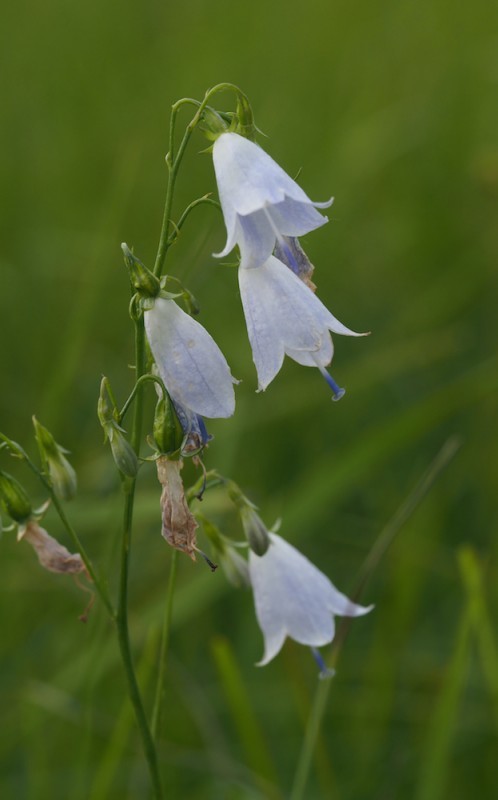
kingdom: Plantae
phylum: Tracheophyta
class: Magnoliopsida
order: Asterales
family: Campanulaceae
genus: Adenophora
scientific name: Adenophora liliifolia
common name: Lilyleaf ladybells
